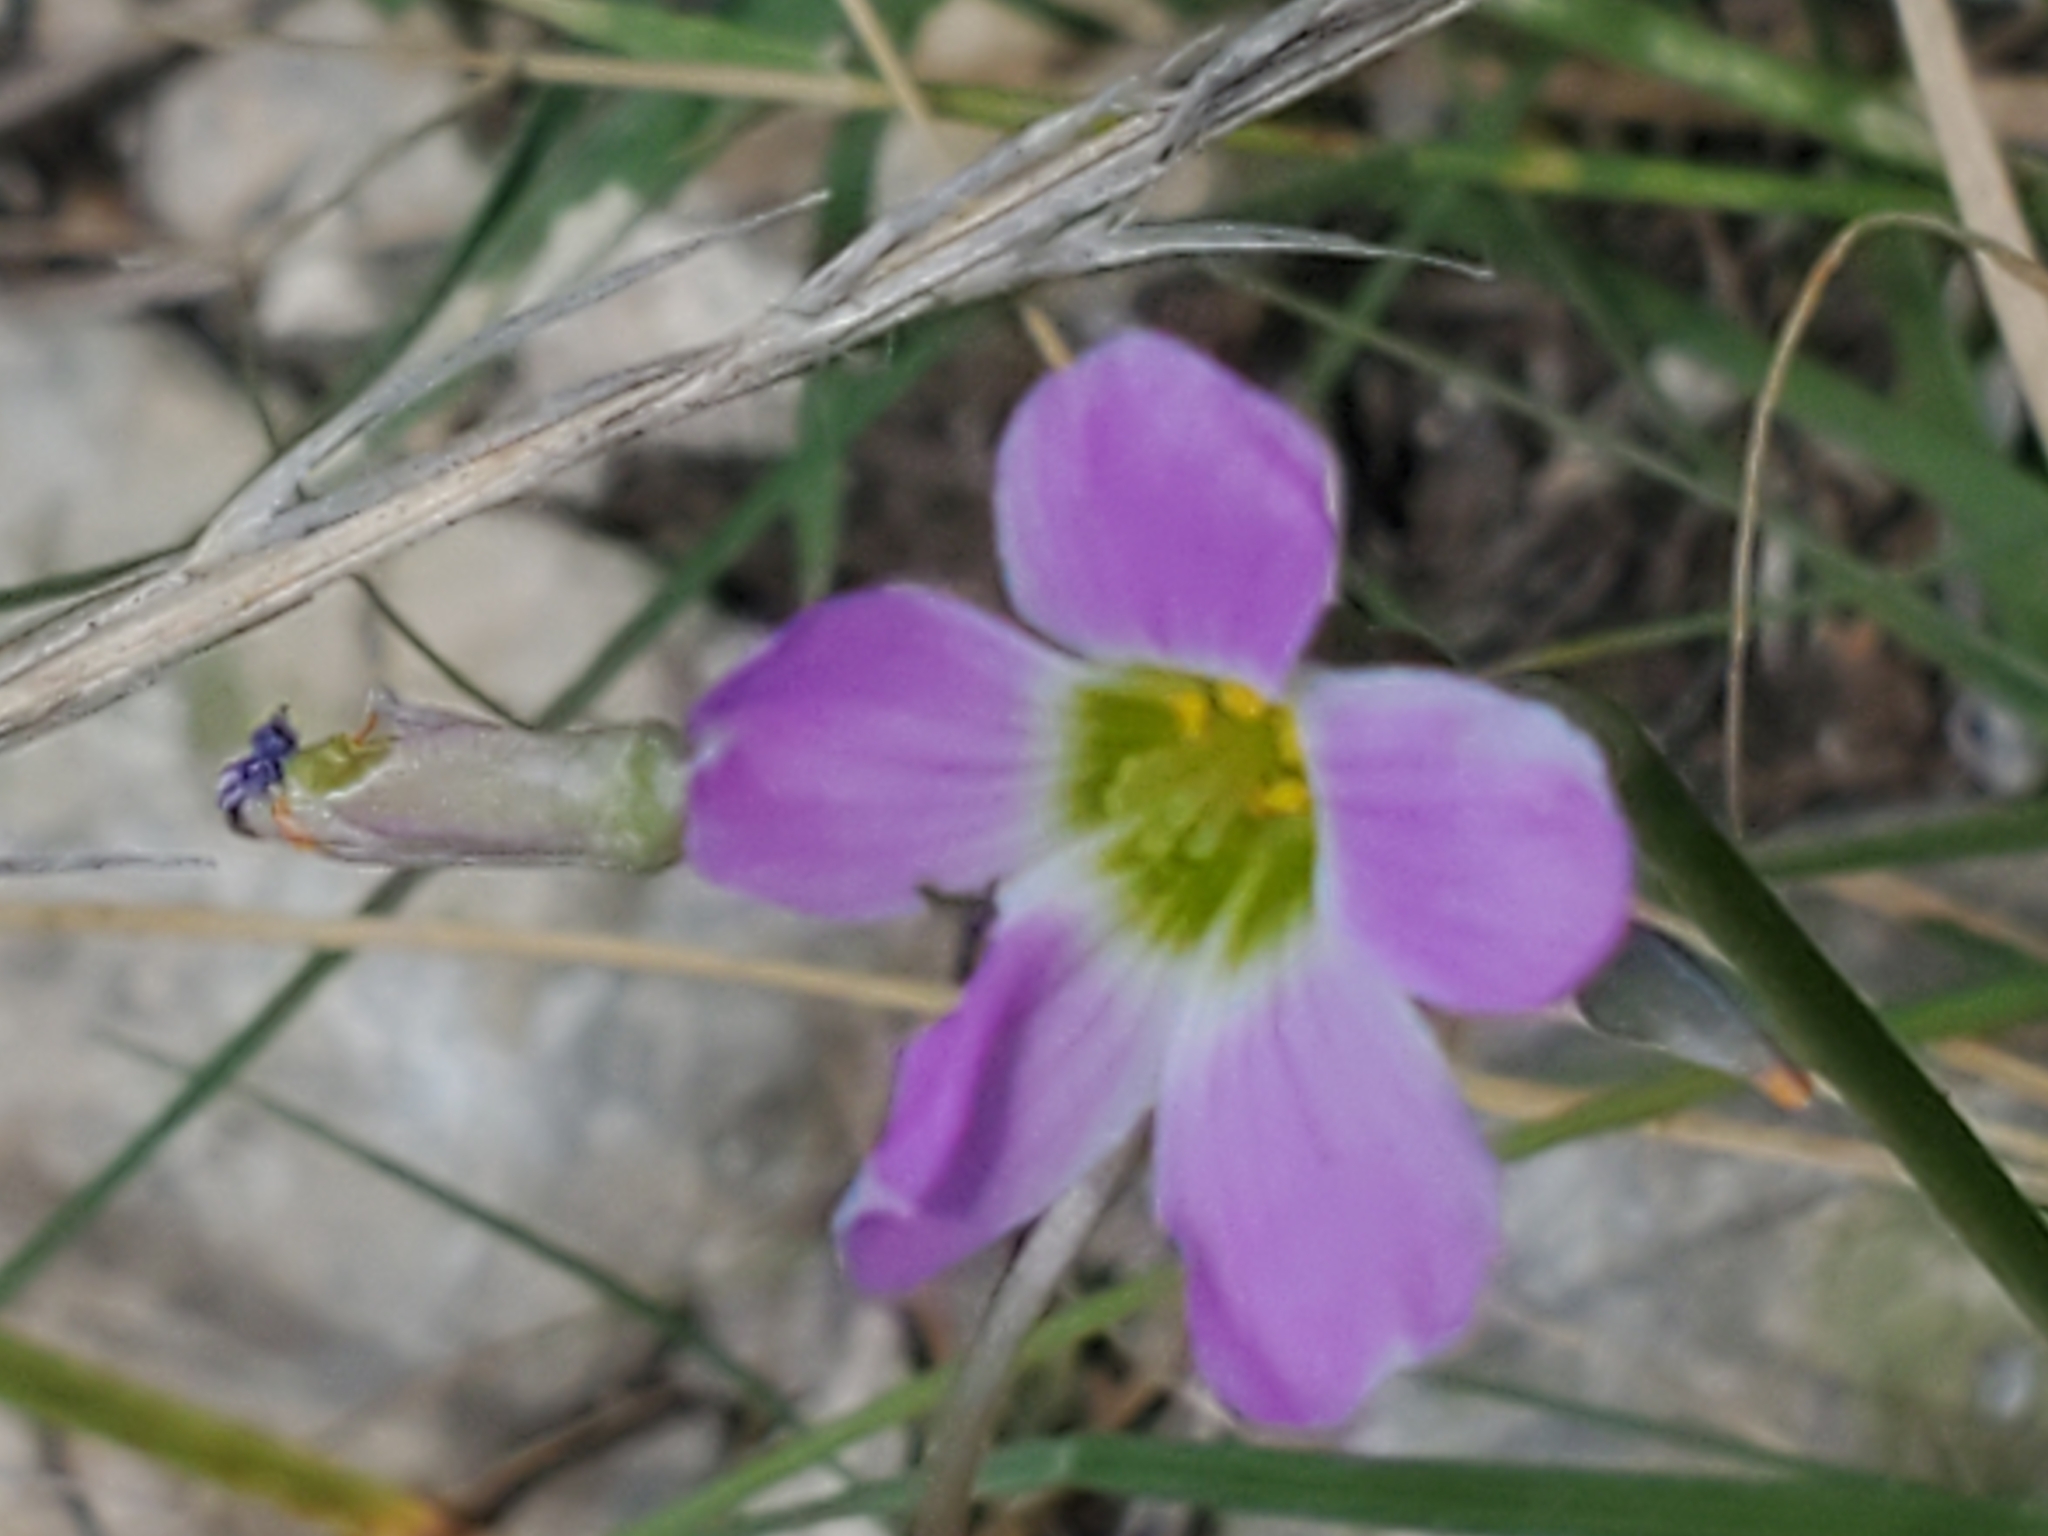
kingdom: Plantae
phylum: Tracheophyta
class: Magnoliopsida
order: Oxalidales
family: Oxalidaceae
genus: Oxalis
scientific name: Oxalis drummondii
